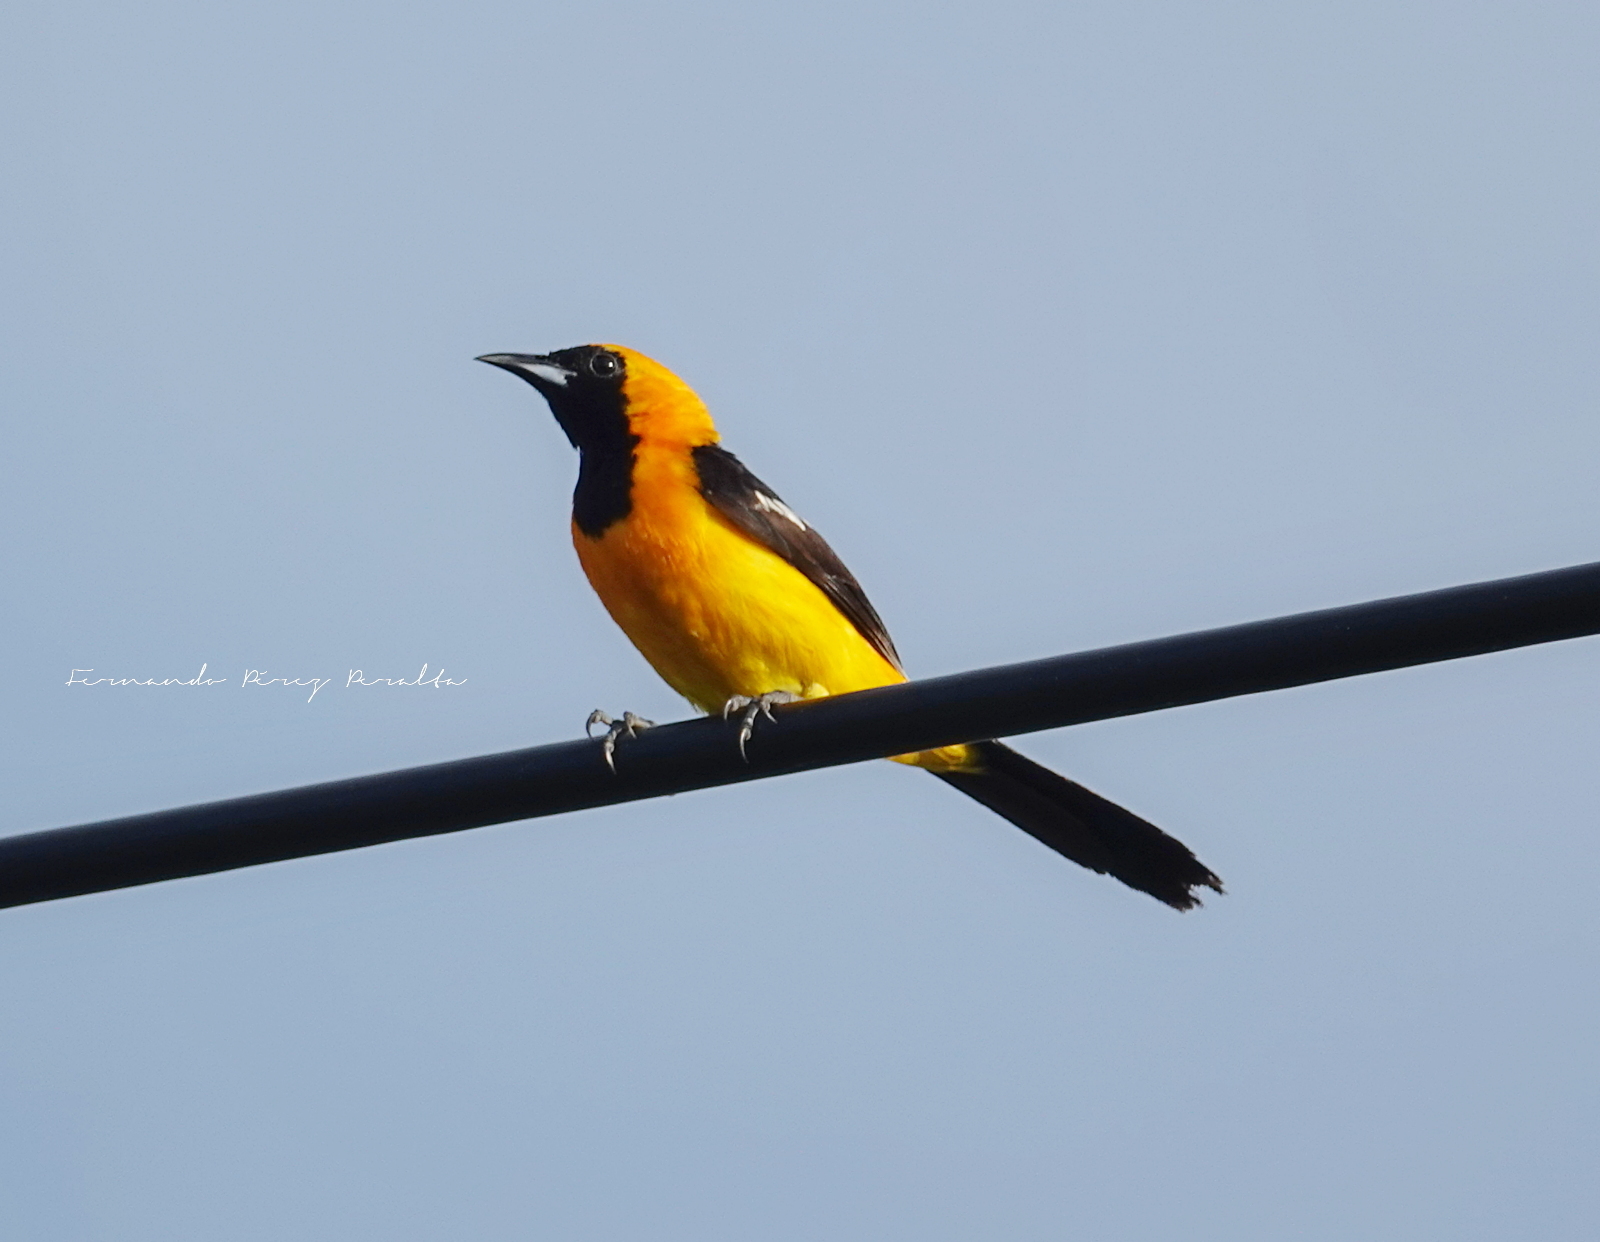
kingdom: Animalia
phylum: Chordata
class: Aves
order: Passeriformes
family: Icteridae
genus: Icterus
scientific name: Icterus cucullatus
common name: Hooded oriole
